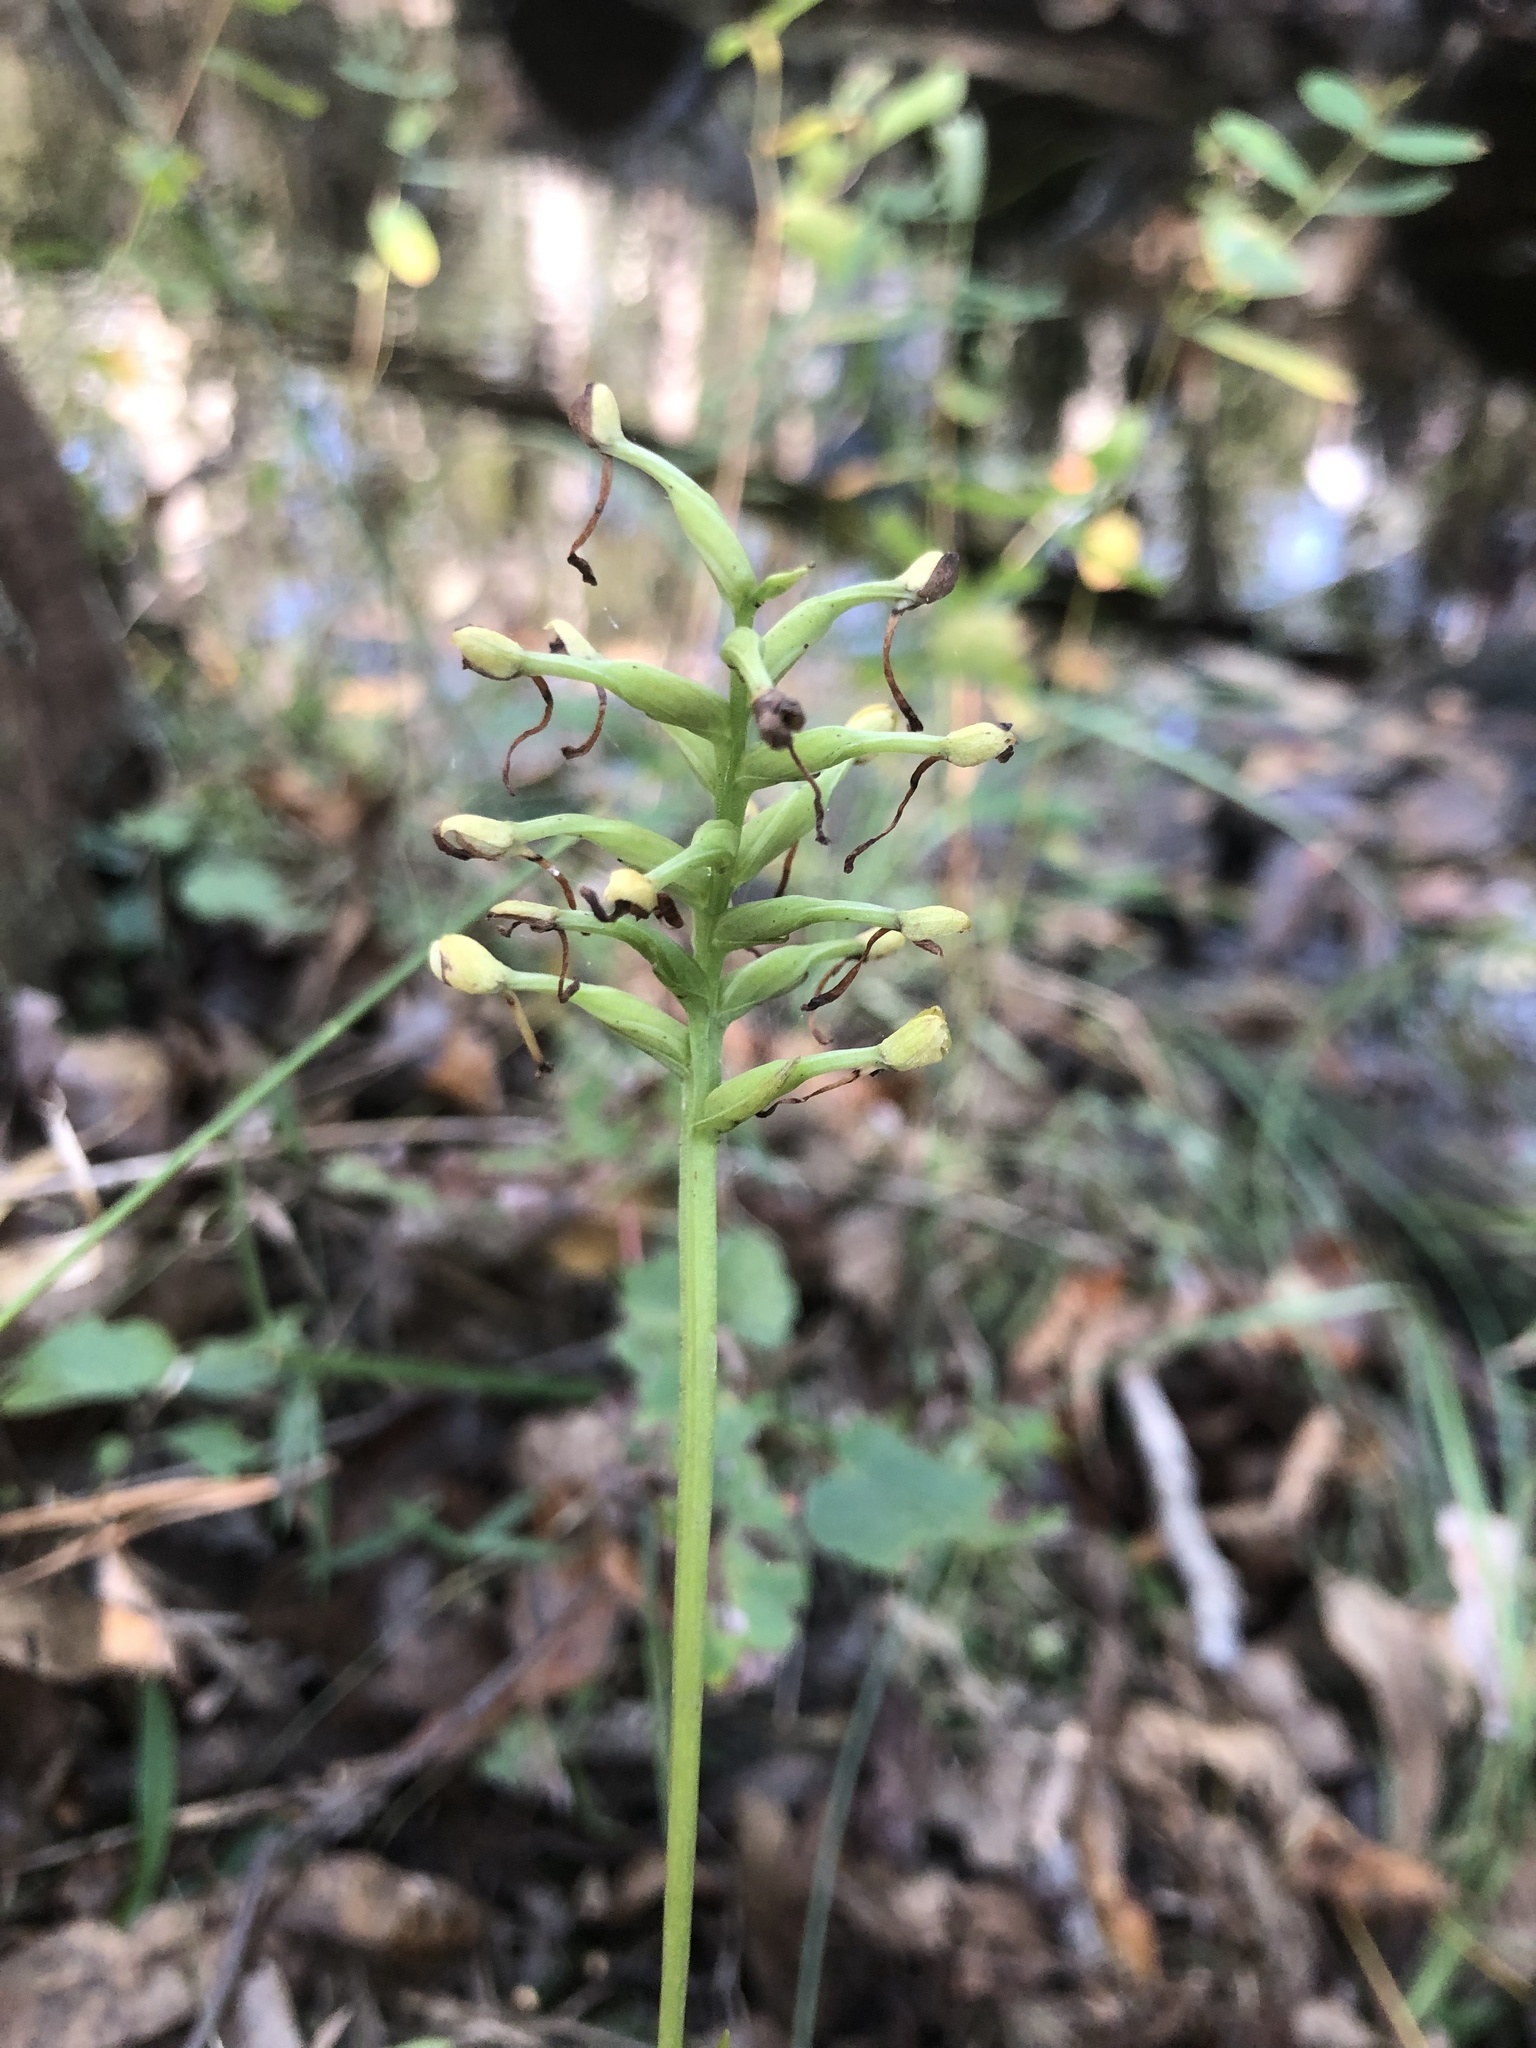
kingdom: Plantae
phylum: Tracheophyta
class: Liliopsida
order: Asparagales
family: Orchidaceae
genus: Platanthera
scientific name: Platanthera clavellata
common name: Club-spur orchid
